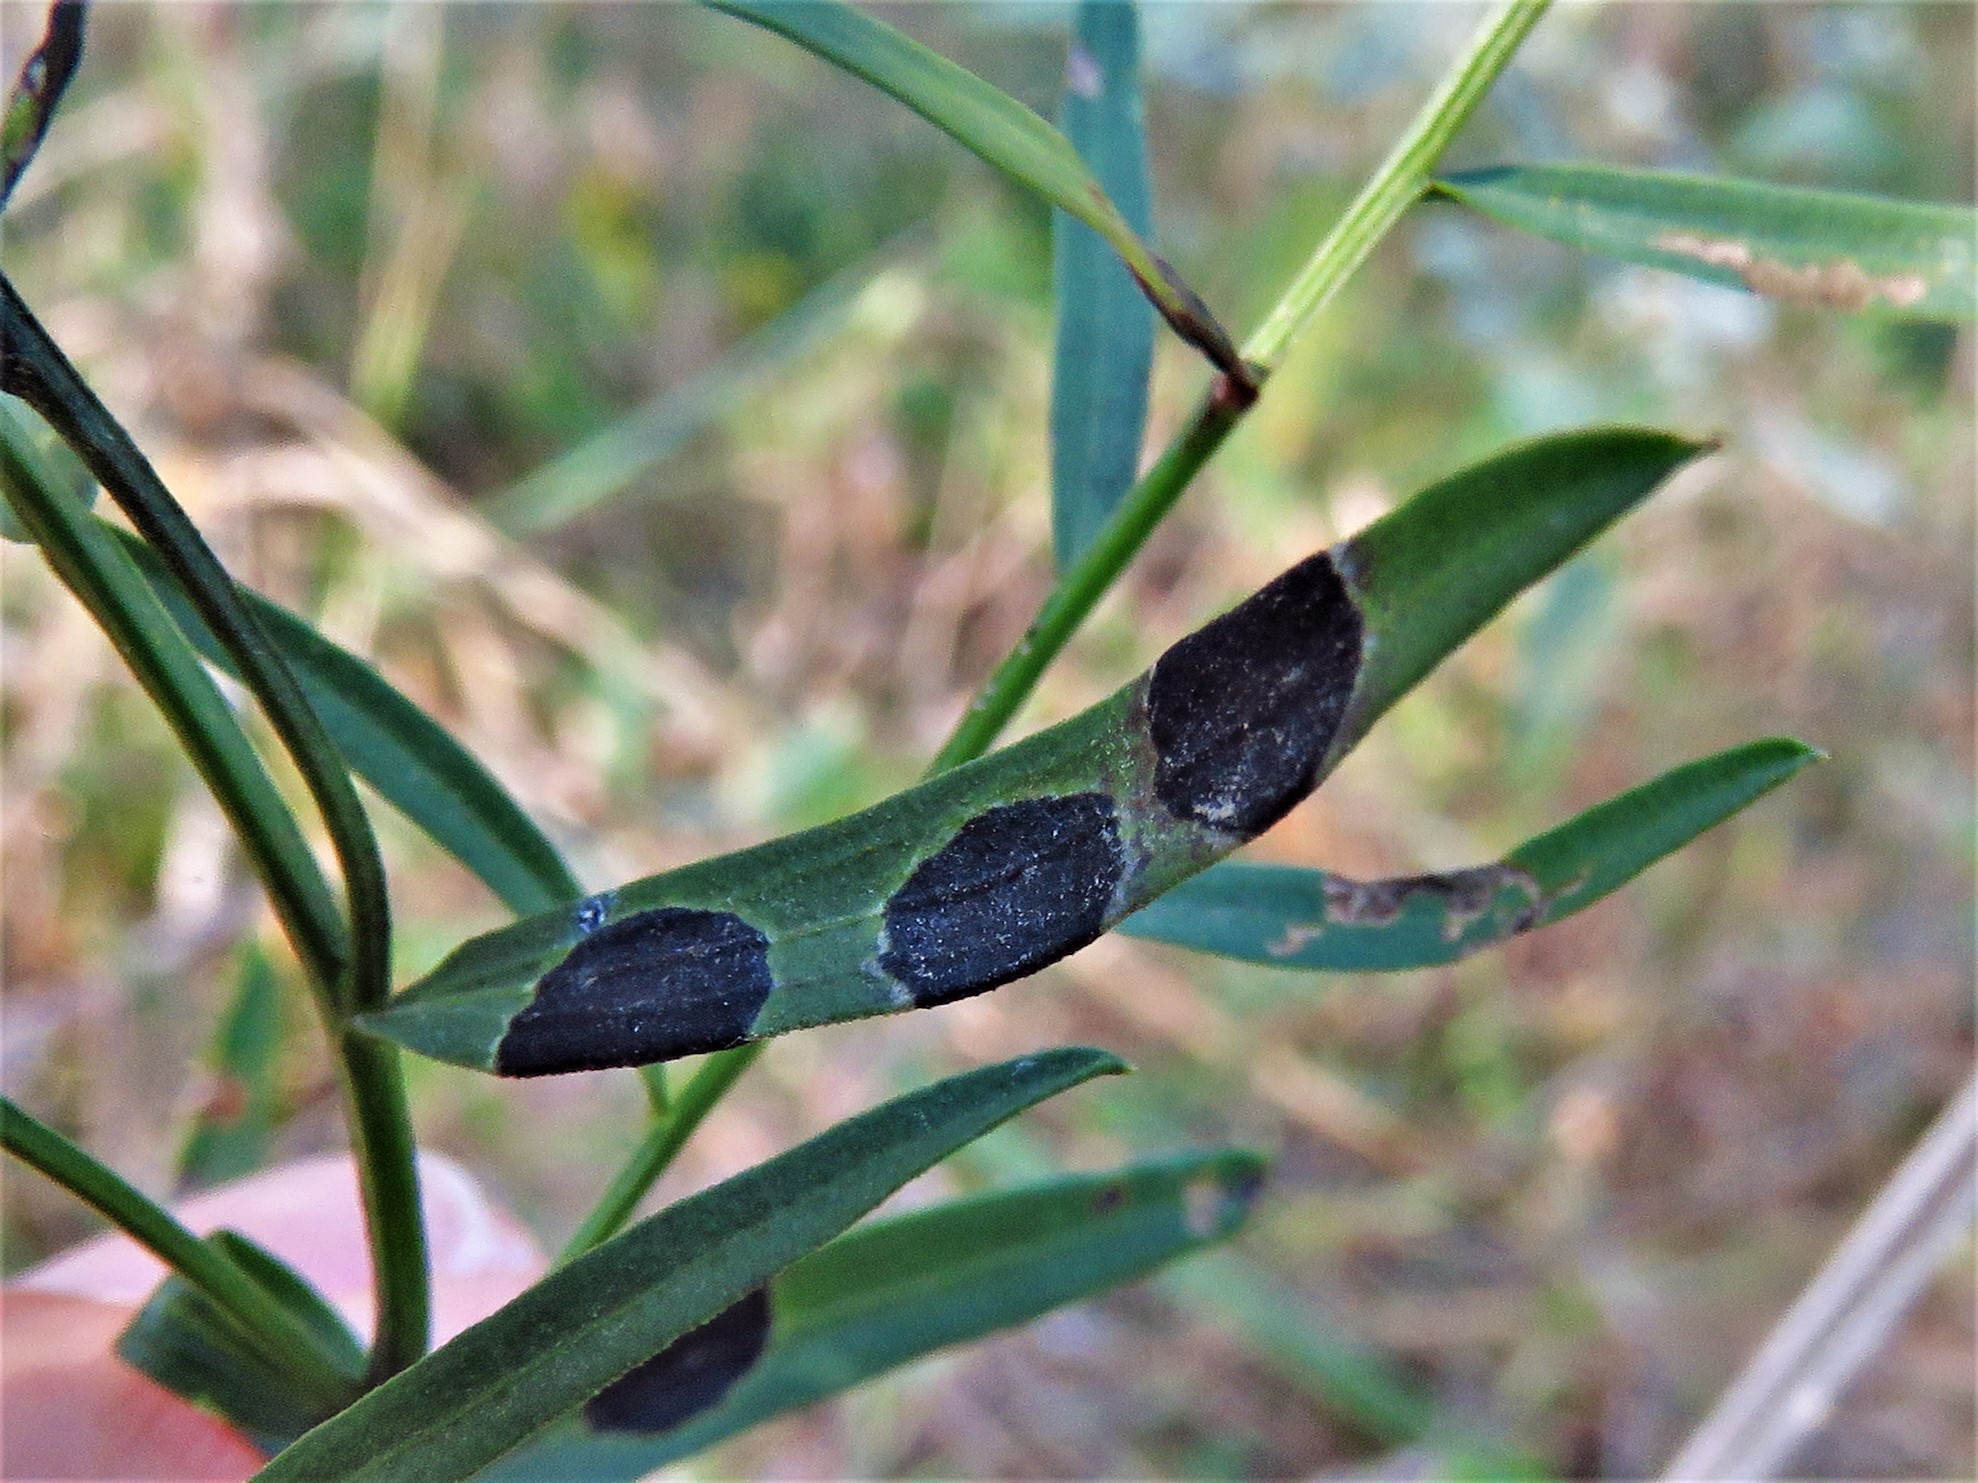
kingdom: Animalia
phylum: Arthropoda
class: Insecta
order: Diptera
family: Cecidomyiidae
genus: Asteromyia
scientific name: Asteromyia euthamiae
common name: Euthamia leaf gall midge
